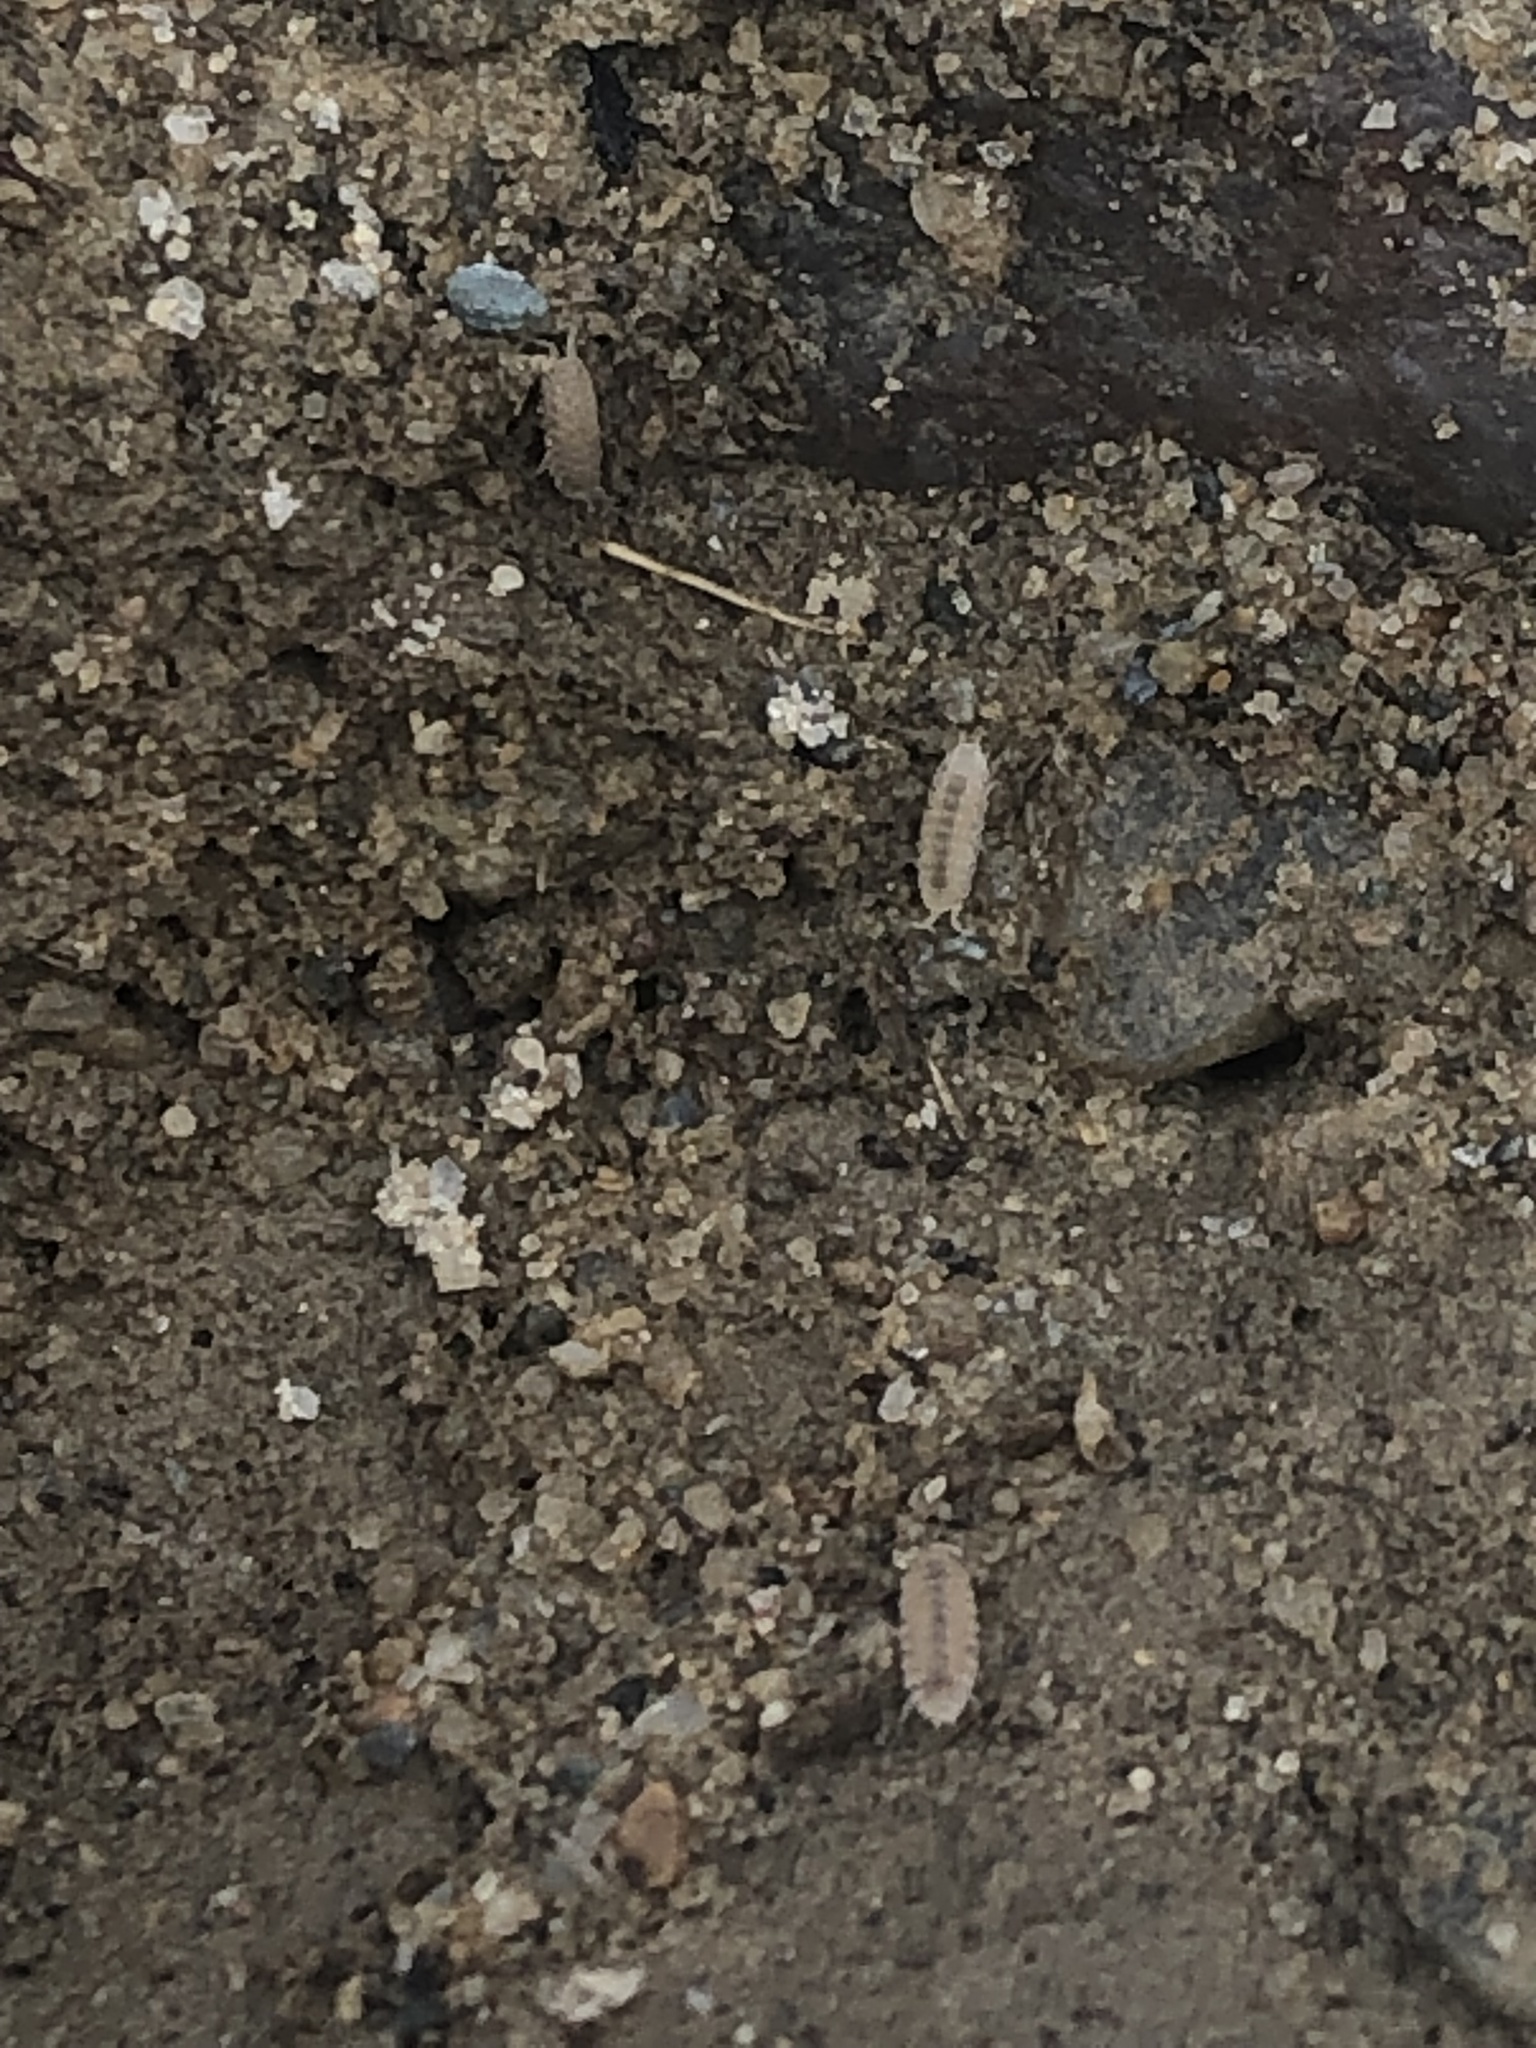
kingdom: Animalia
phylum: Arthropoda
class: Malacostraca
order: Isopoda
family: Trichoniscidae
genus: Haplophthalmus
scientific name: Haplophthalmus danicus
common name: Pillbug
